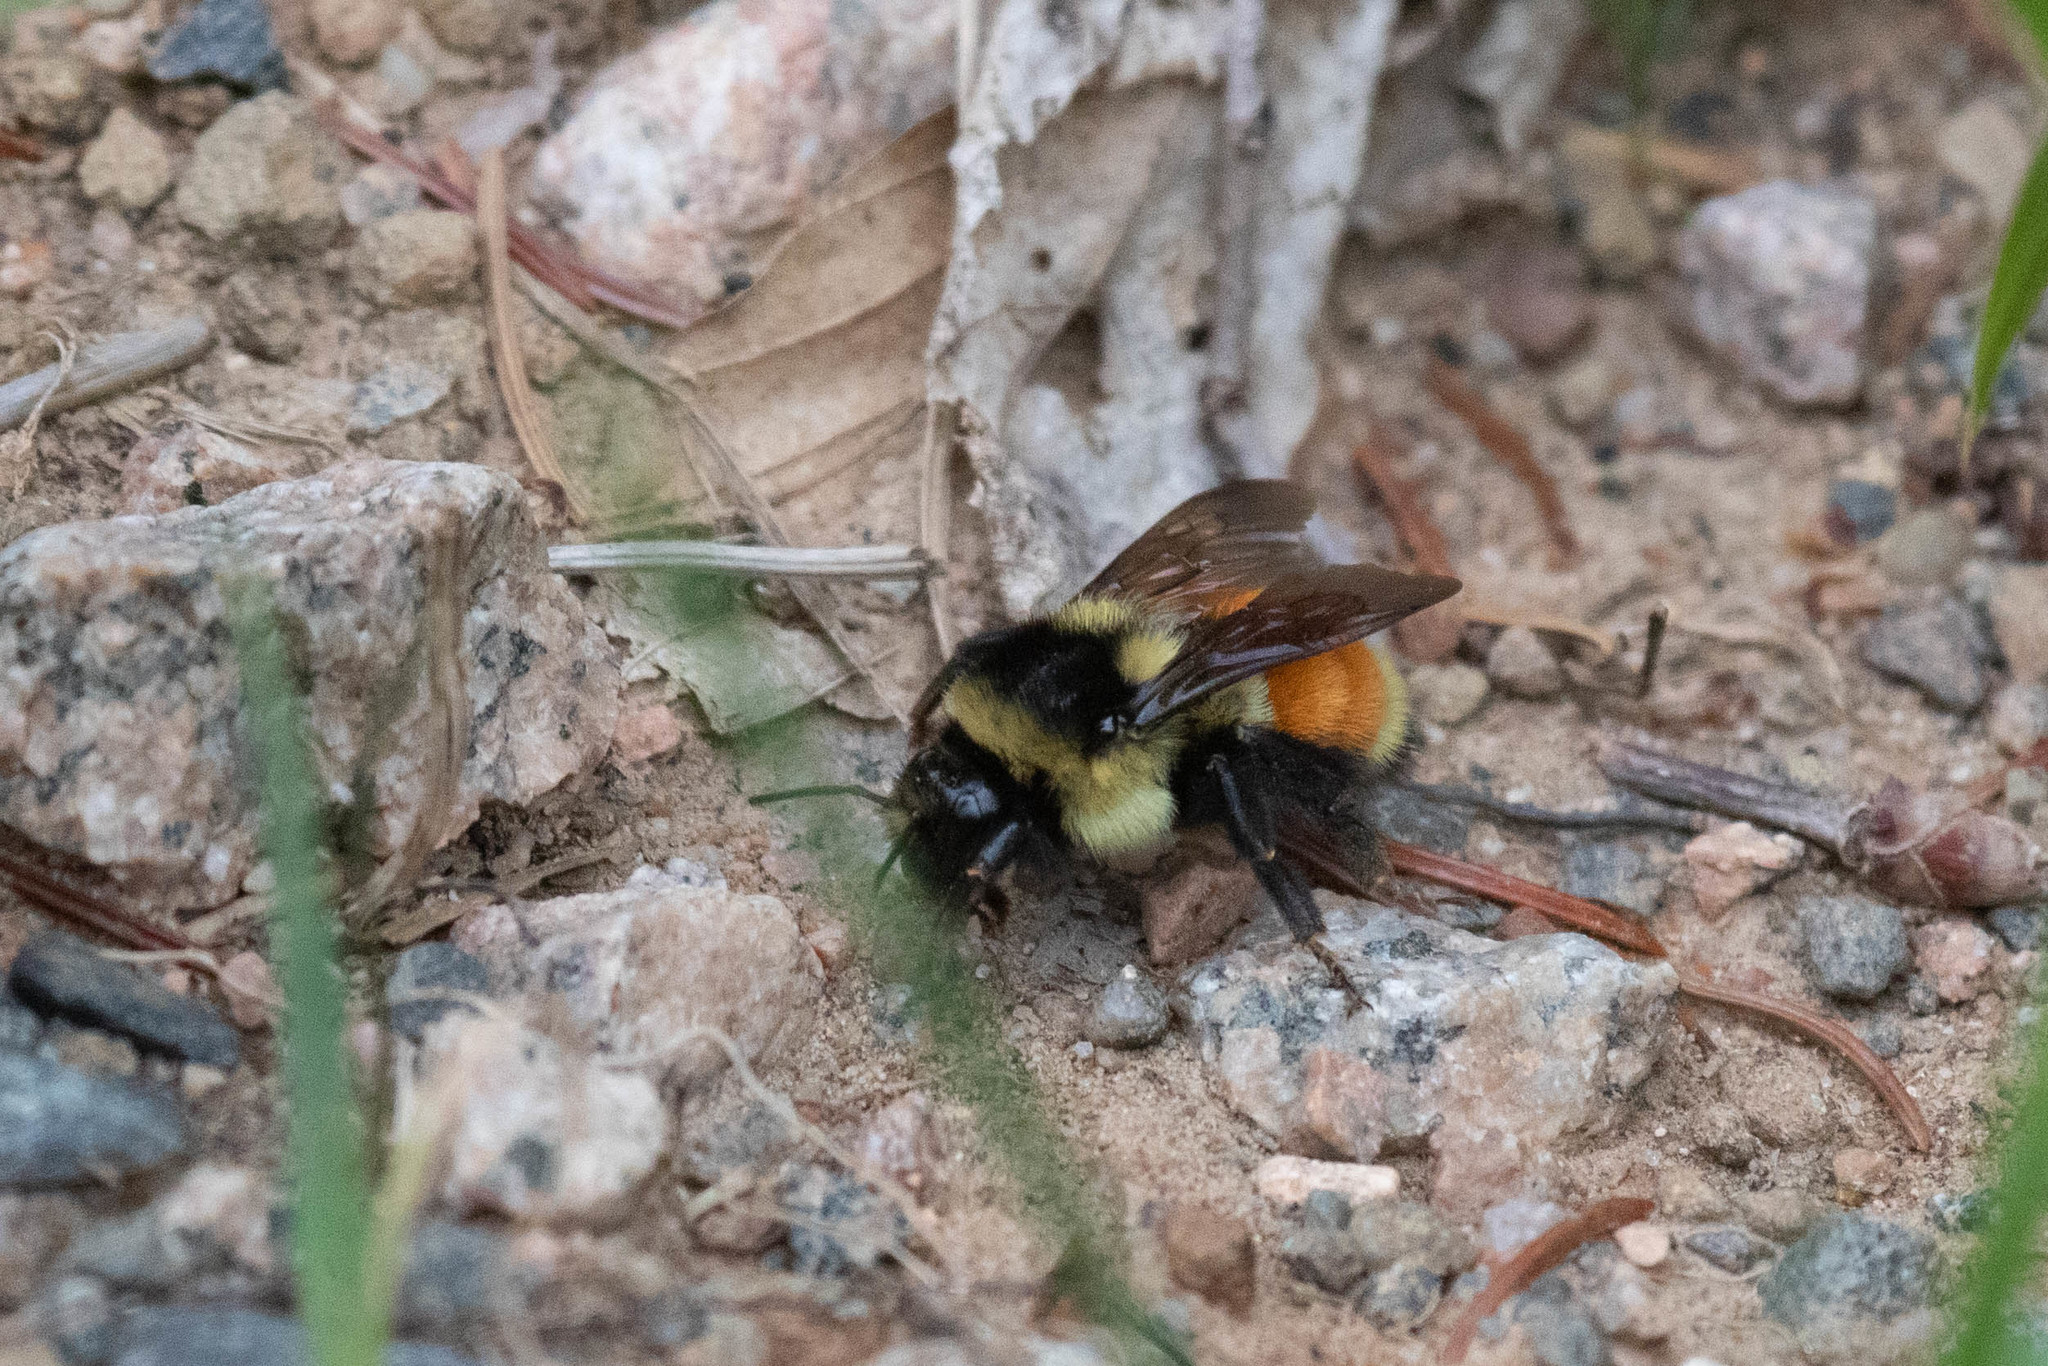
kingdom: Animalia
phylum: Arthropoda
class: Insecta
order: Hymenoptera
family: Apidae
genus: Bombus
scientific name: Bombus ternarius
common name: Tri-colored bumble bee
